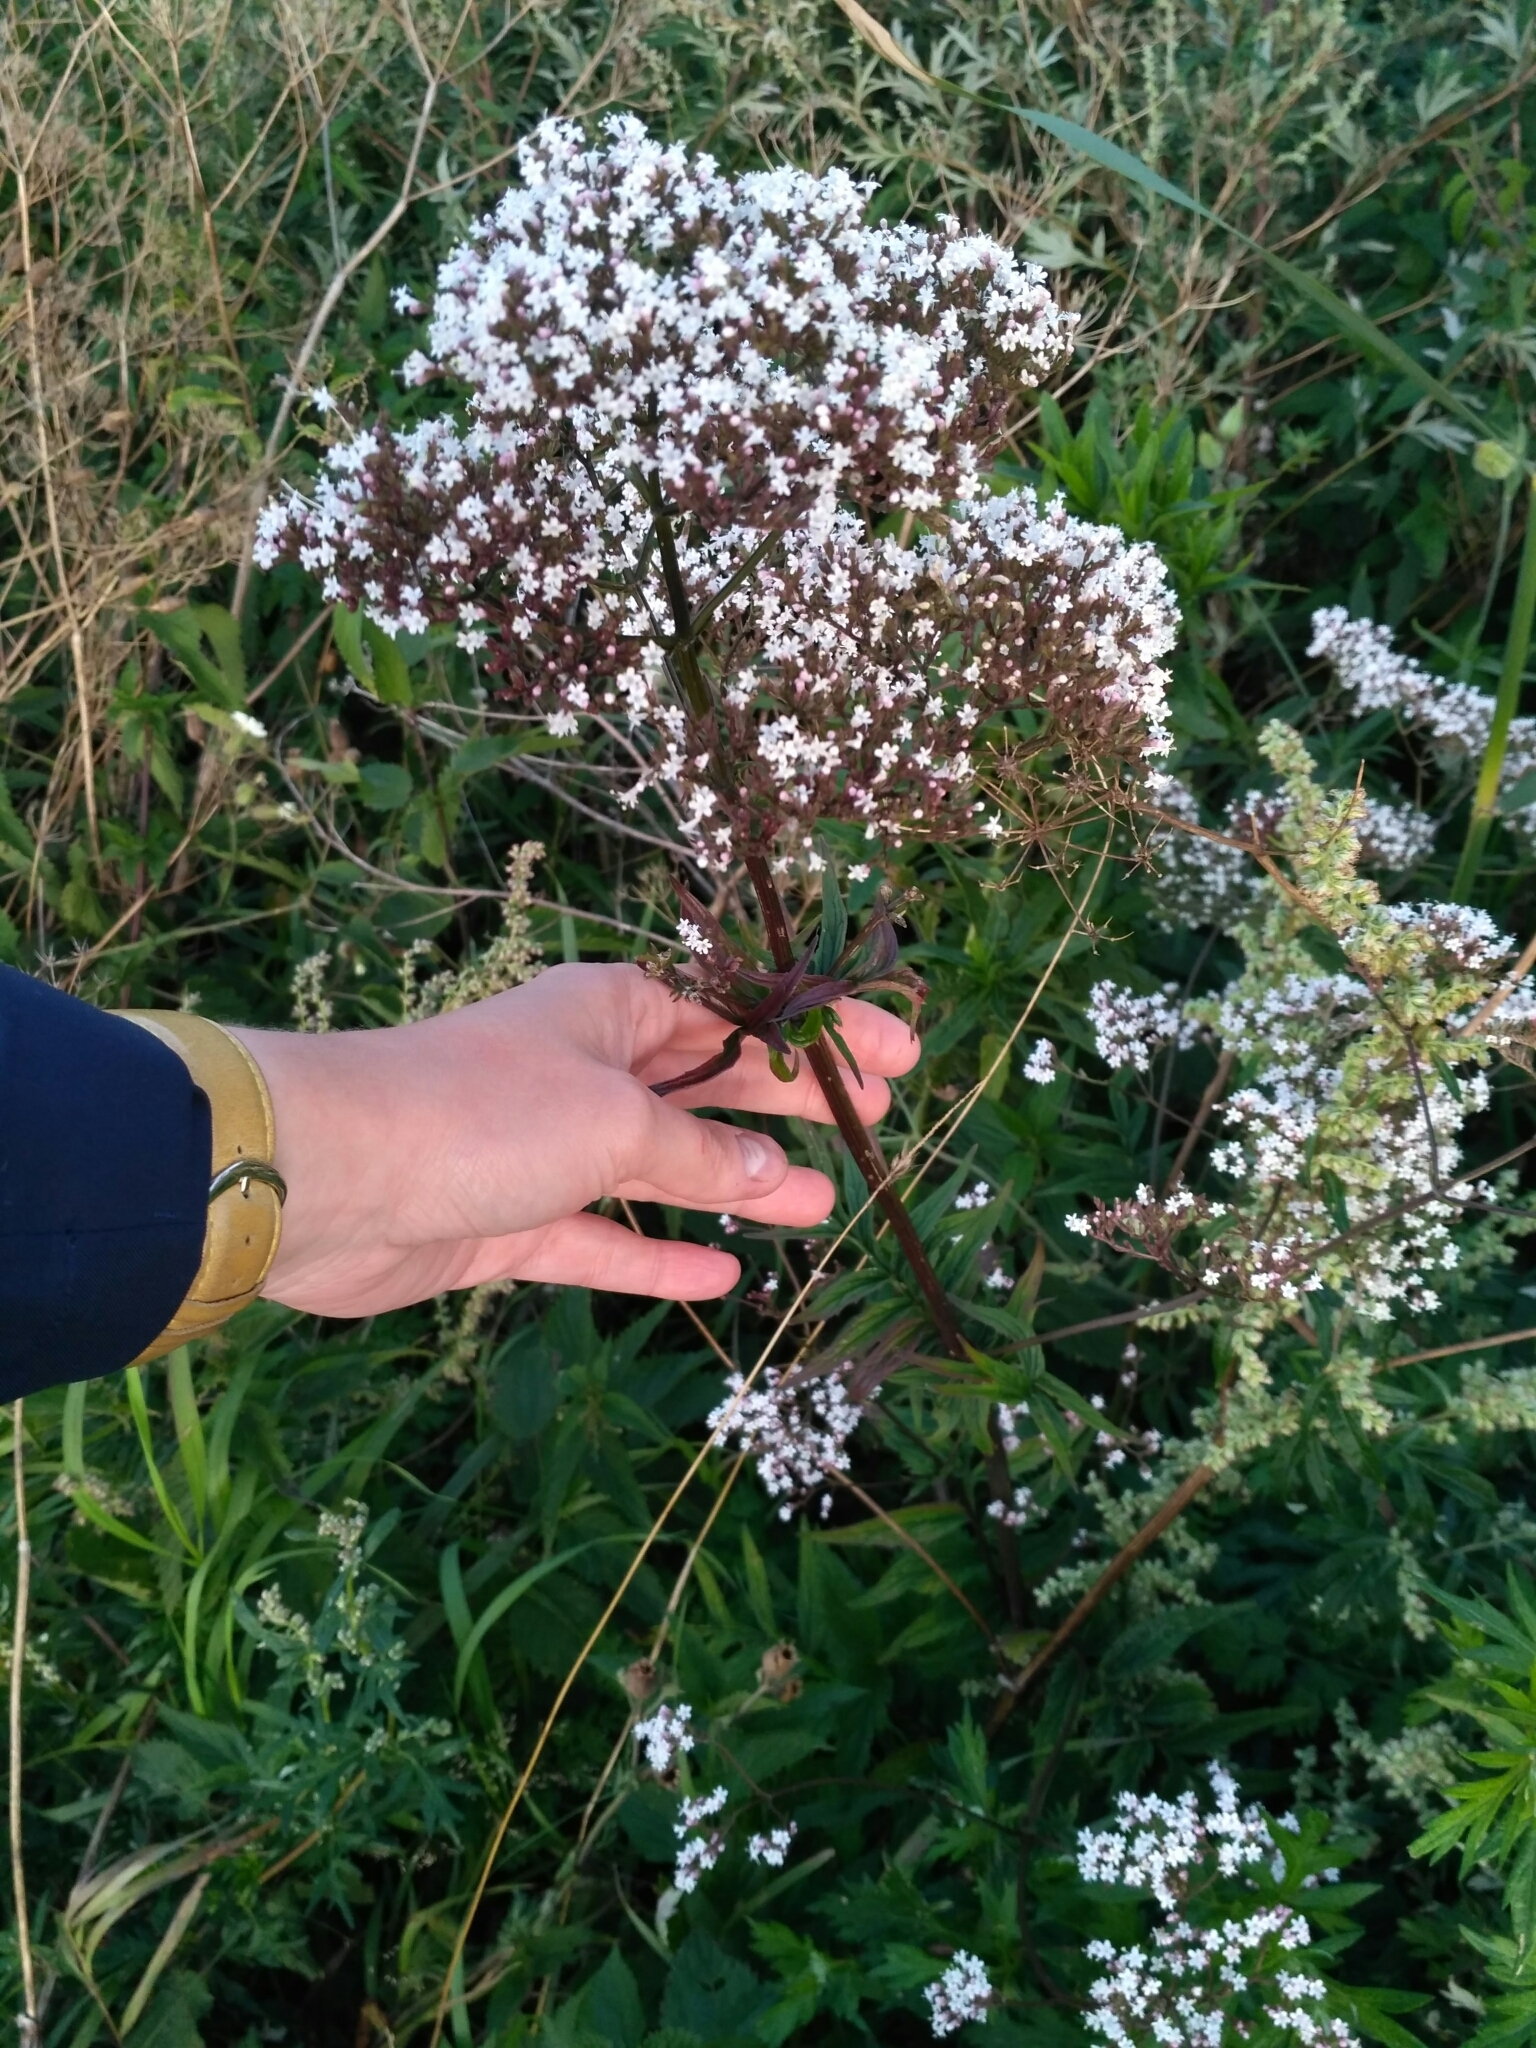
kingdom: Plantae
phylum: Tracheophyta
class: Magnoliopsida
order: Dipsacales
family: Caprifoliaceae
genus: Valeriana
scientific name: Valeriana officinalis
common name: Common valerian
